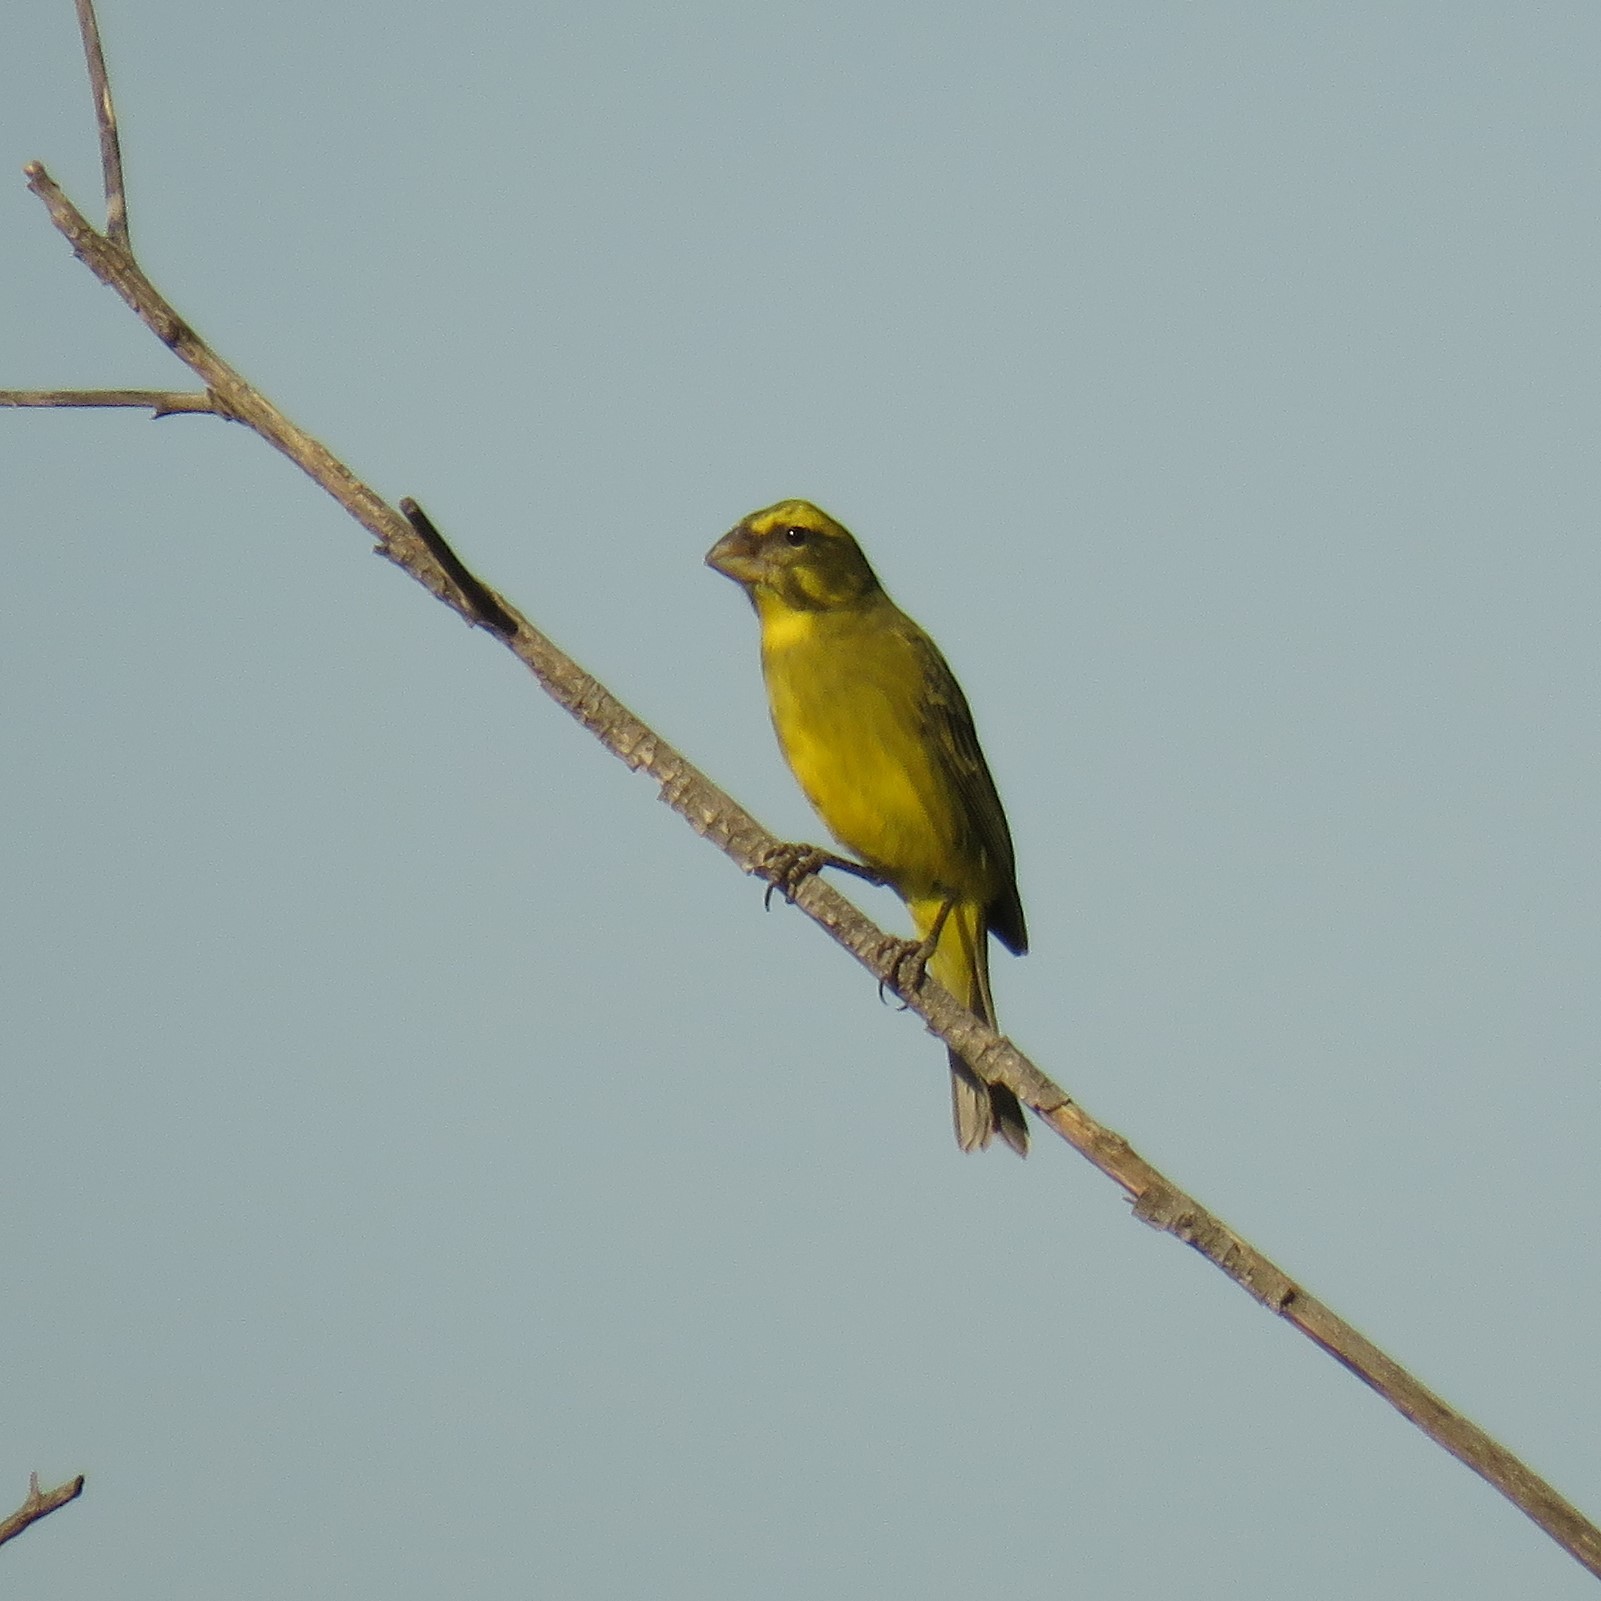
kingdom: Animalia
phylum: Chordata
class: Aves
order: Passeriformes
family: Fringillidae
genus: Crithagra
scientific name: Crithagra sulphurata
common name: Brimstone canary
